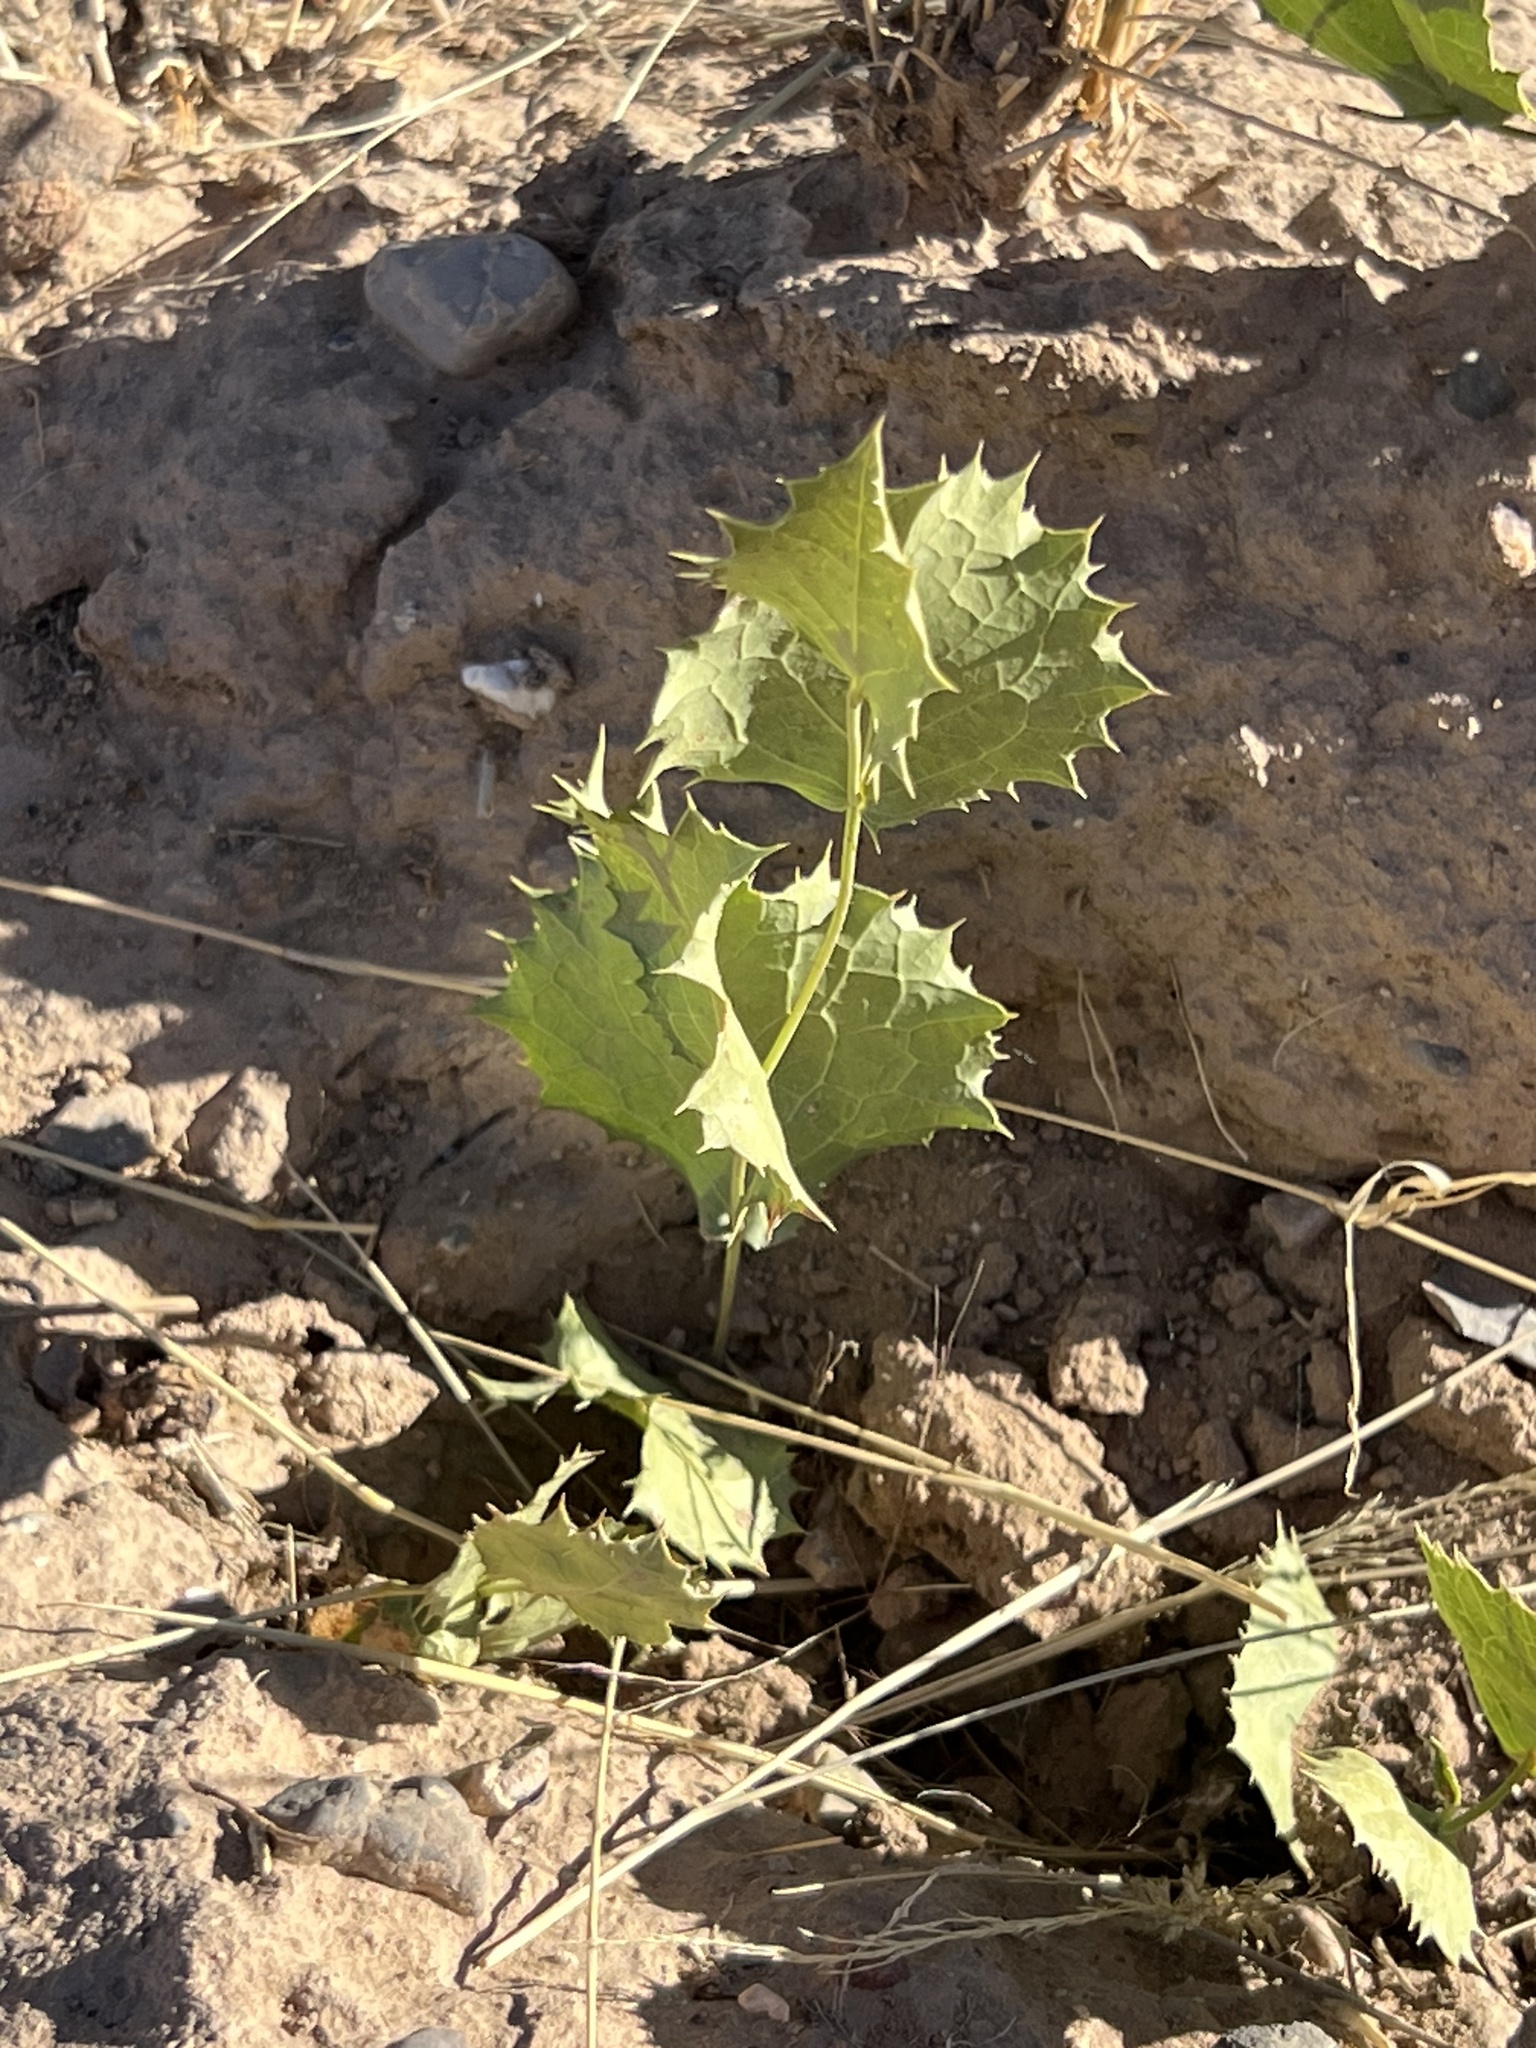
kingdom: Plantae
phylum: Tracheophyta
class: Magnoliopsida
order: Asterales
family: Asteraceae
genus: Acourtia
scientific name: Acourtia nana
